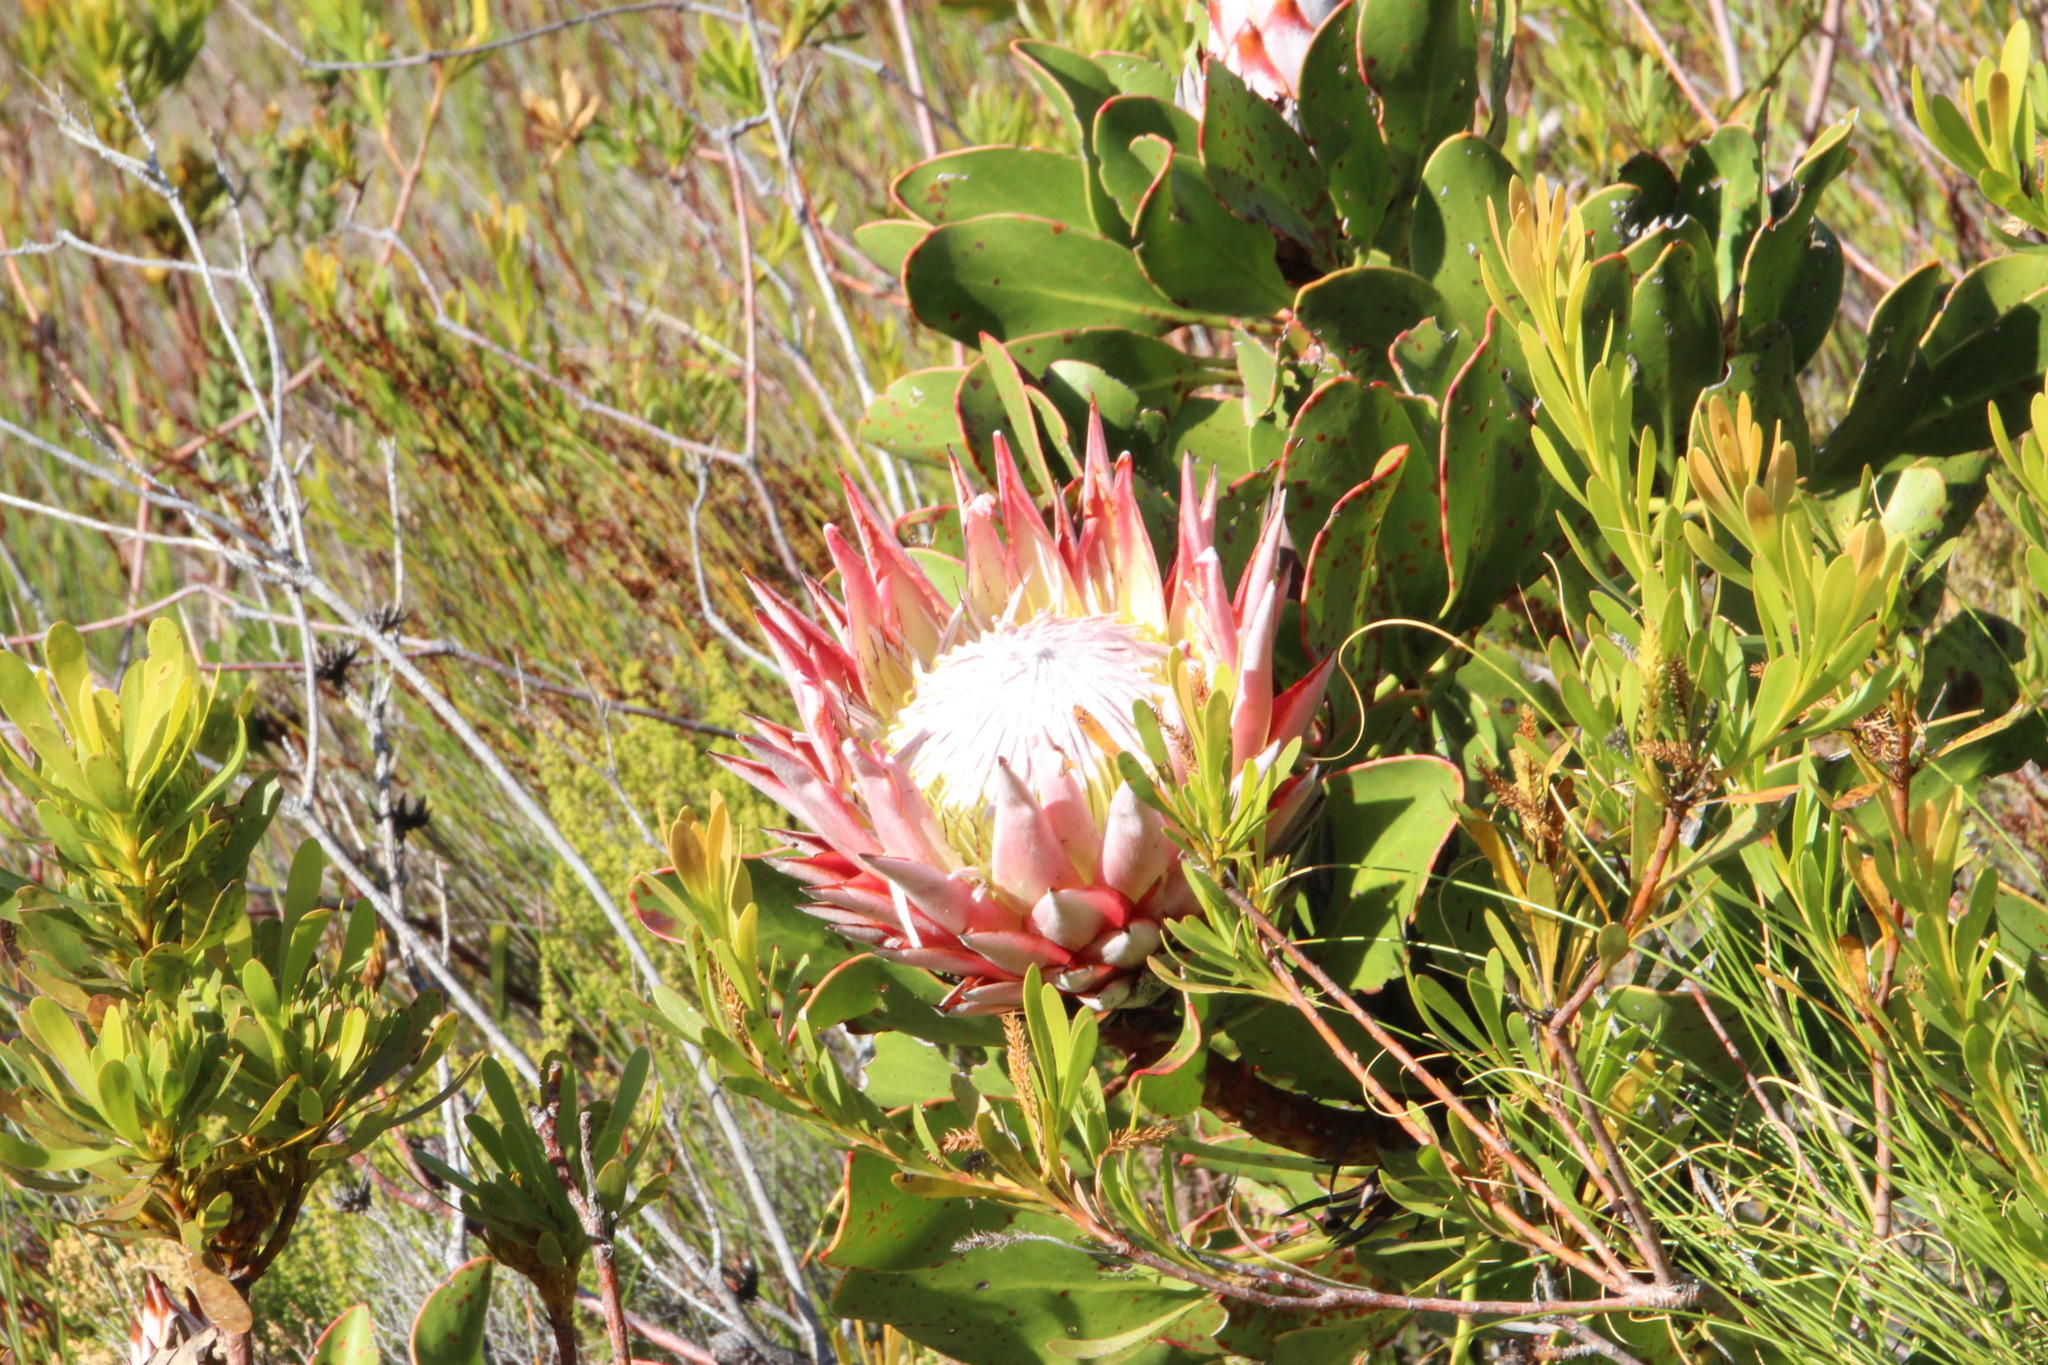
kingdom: Plantae
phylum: Tracheophyta
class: Magnoliopsida
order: Proteales
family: Proteaceae
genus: Protea
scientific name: Protea cynaroides
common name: King protea
